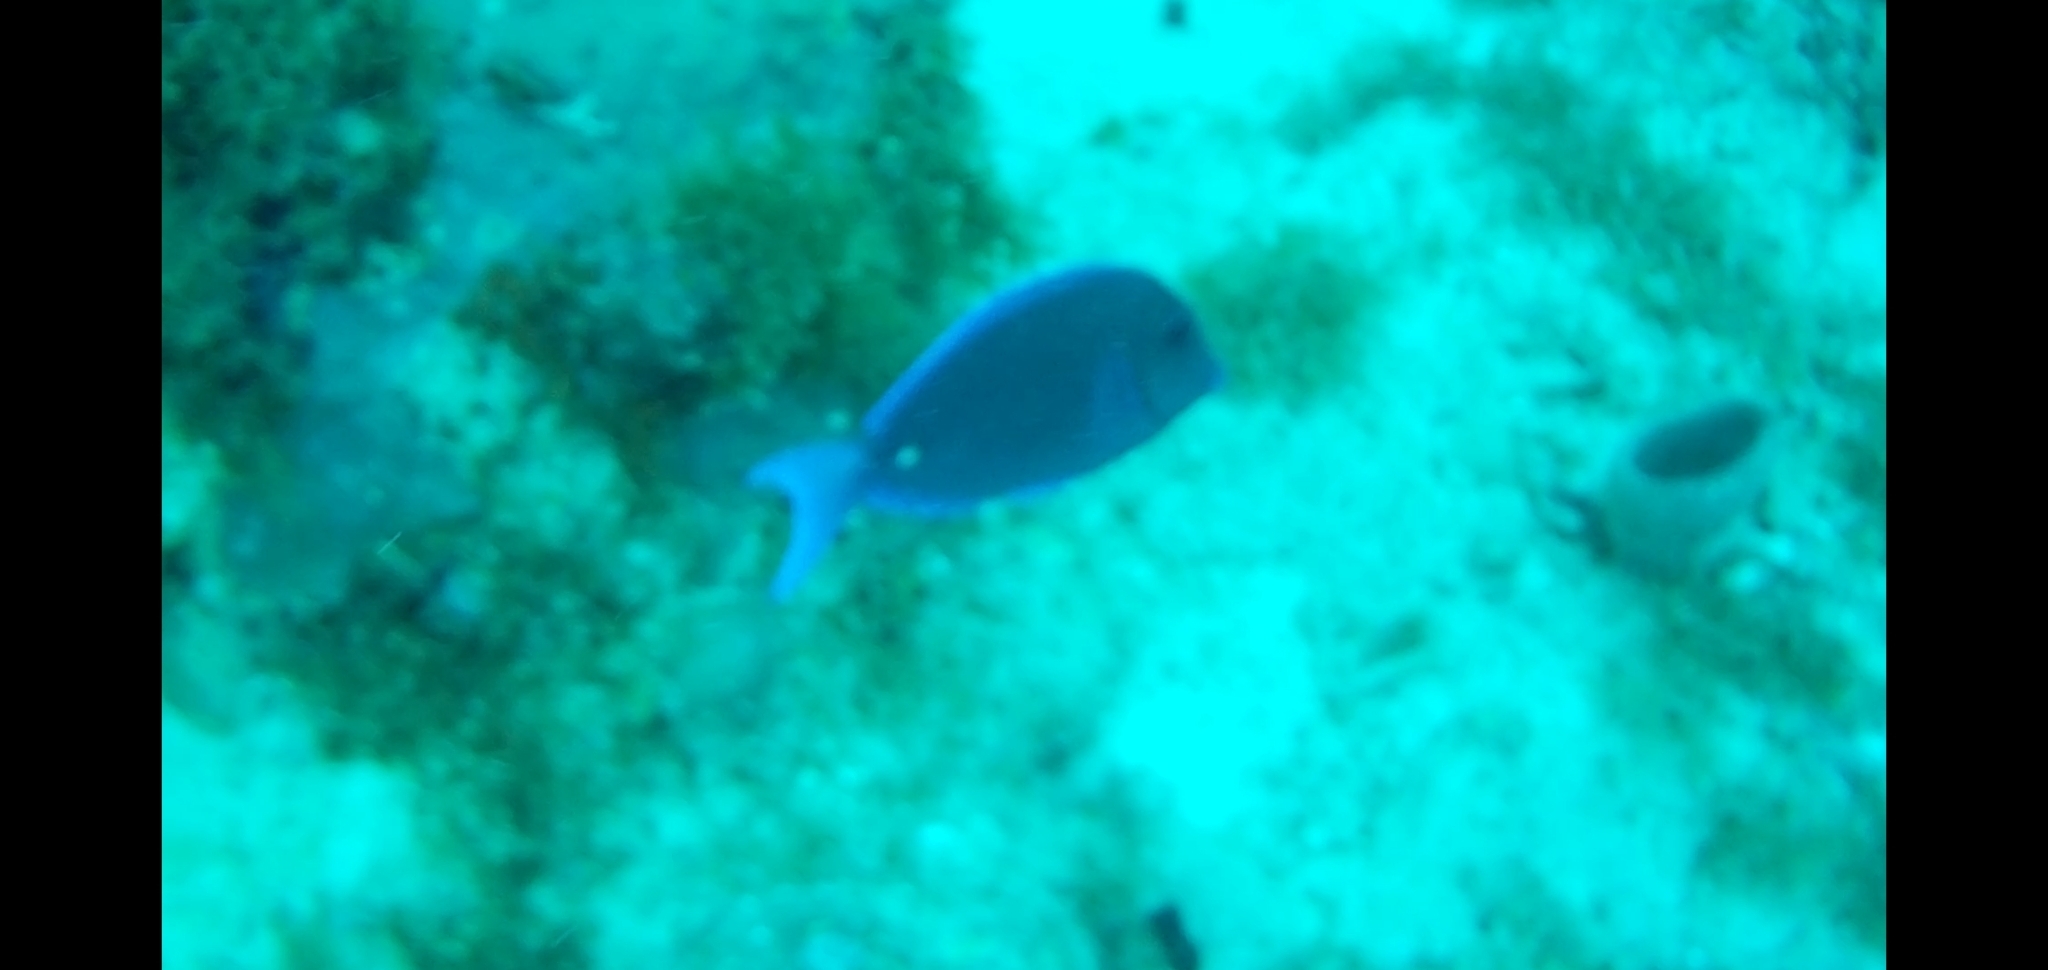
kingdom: Animalia
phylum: Chordata
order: Perciformes
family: Acanthuridae
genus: Acanthurus
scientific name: Acanthurus coeruleus
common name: Blue tang
